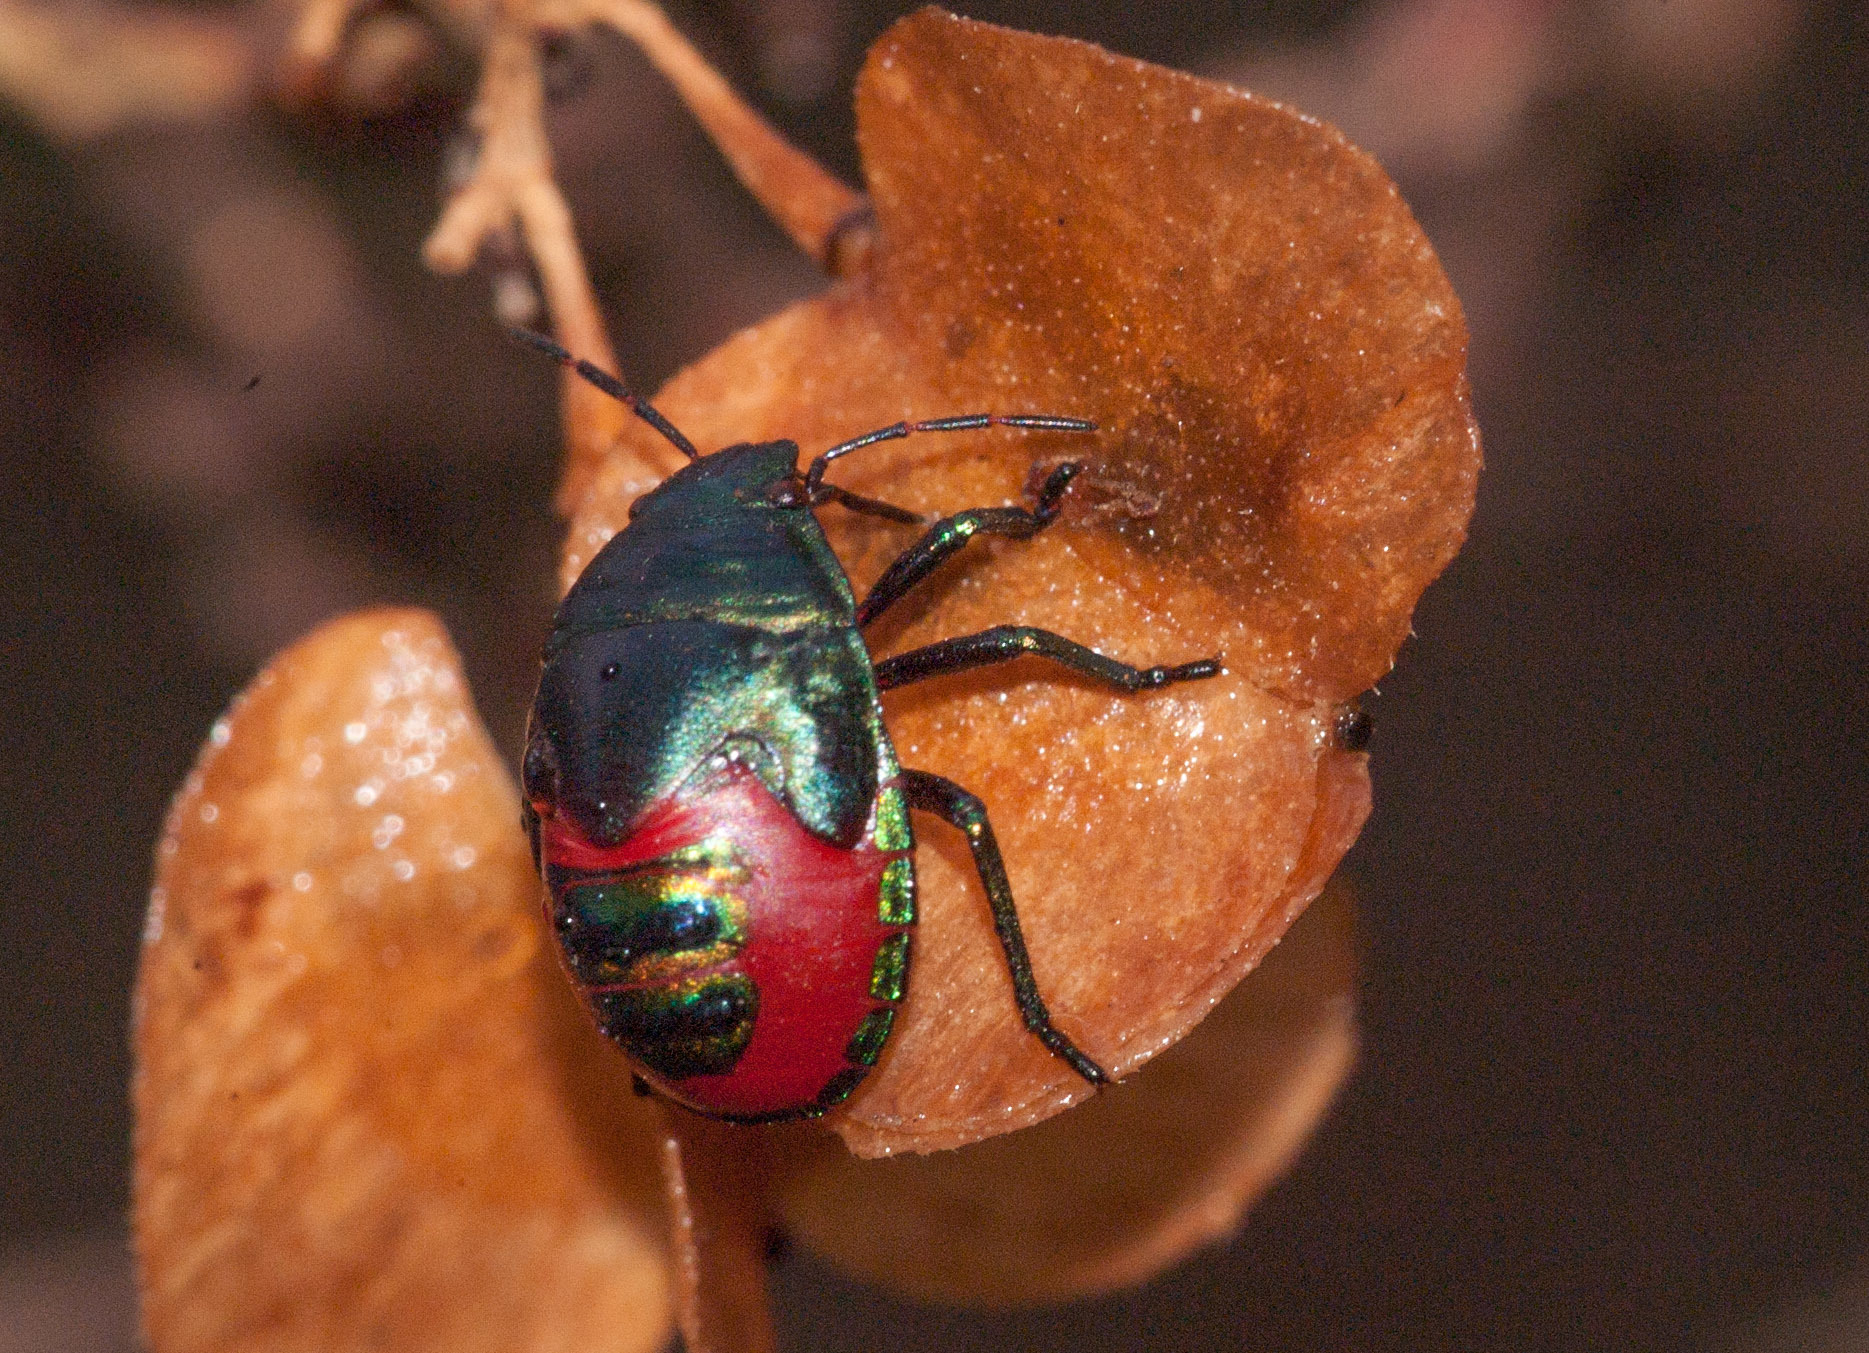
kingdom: Animalia
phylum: Arthropoda
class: Insecta
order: Hemiptera
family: Scutelleridae
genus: Choerocoris
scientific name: Choerocoris paganus
